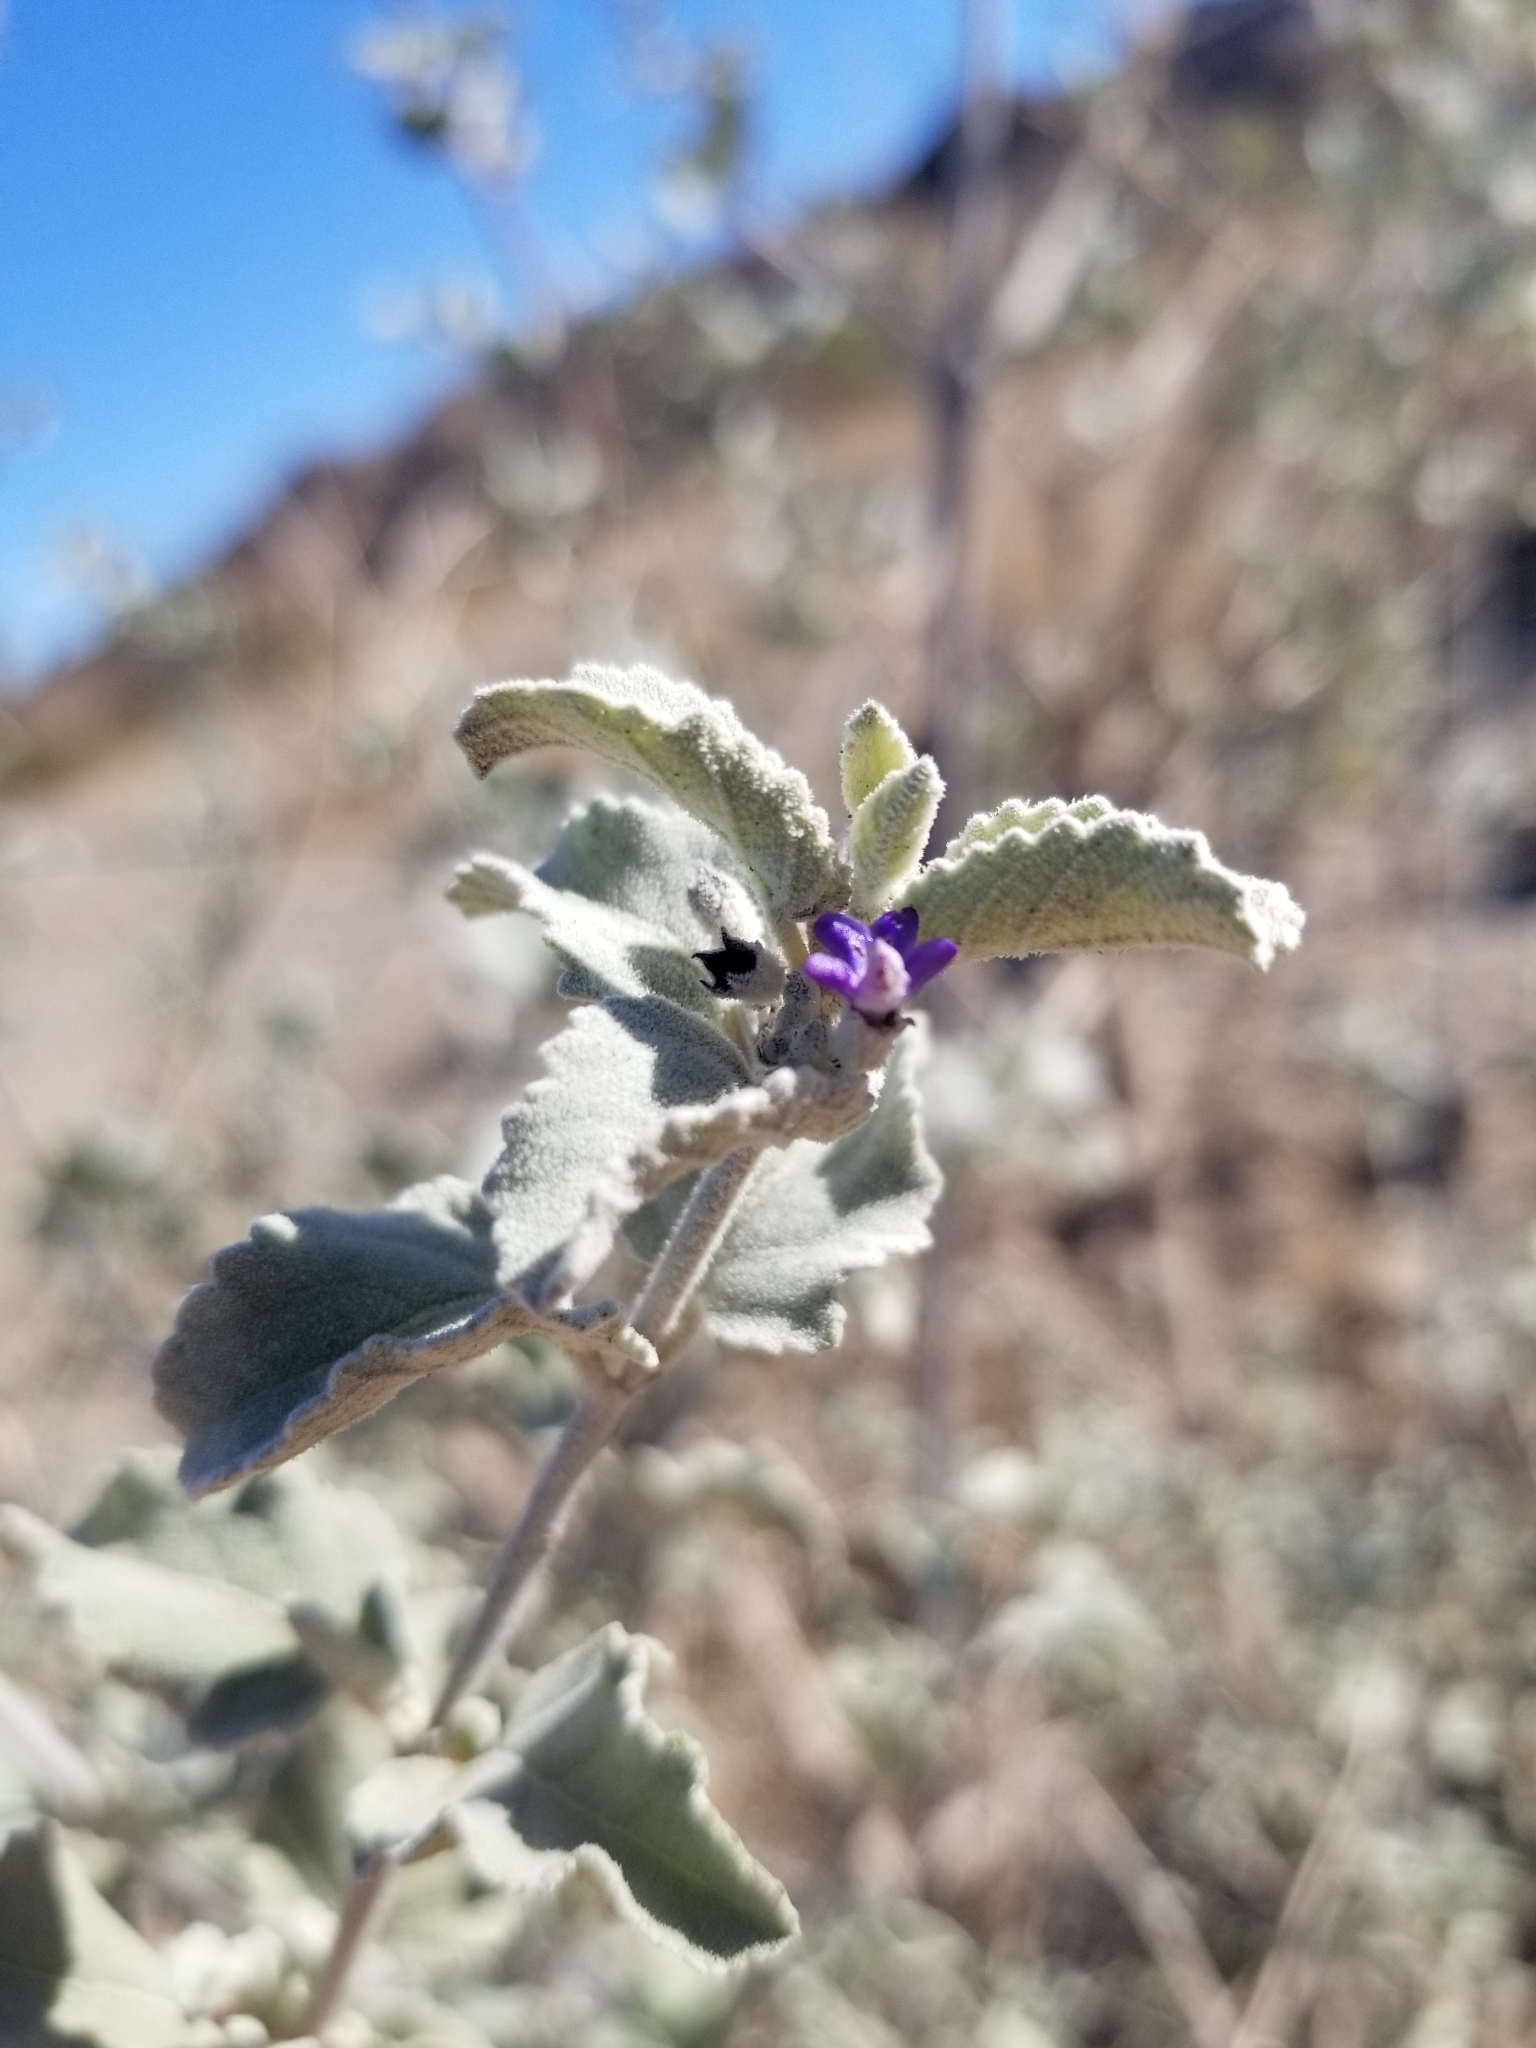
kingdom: Plantae
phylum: Tracheophyta
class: Magnoliopsida
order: Lamiales
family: Lamiaceae
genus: Condea
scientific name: Condea emoryi
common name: Chia
